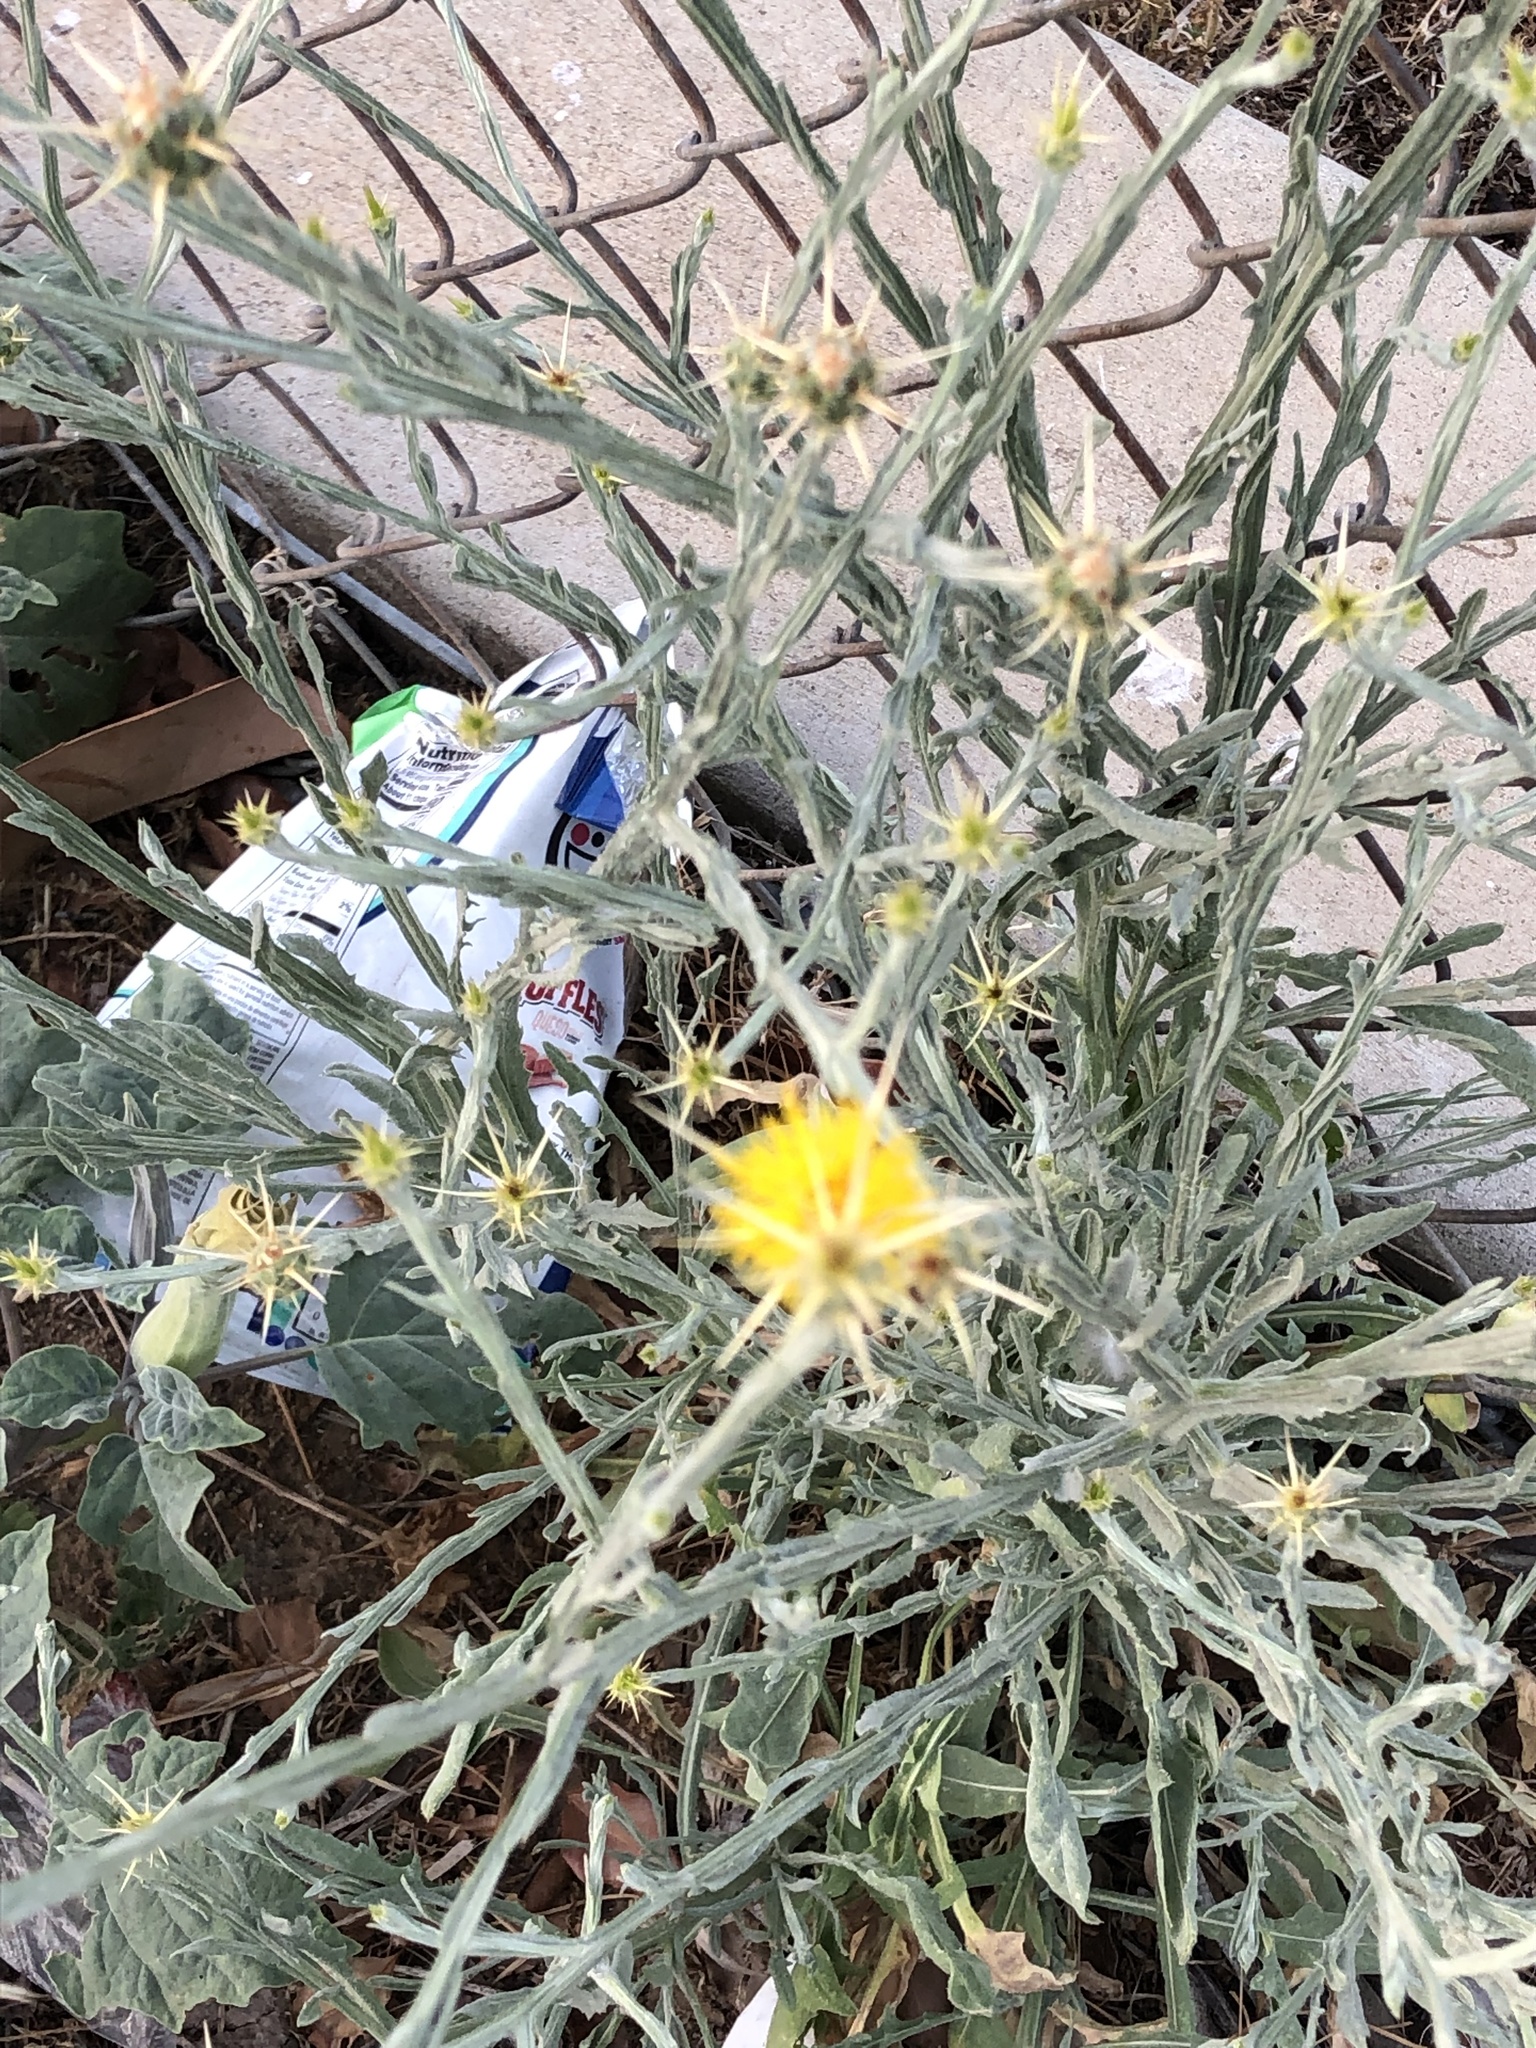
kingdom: Plantae
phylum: Tracheophyta
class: Magnoliopsida
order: Asterales
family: Asteraceae
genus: Centaurea
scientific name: Centaurea solstitialis
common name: Yellow star-thistle
